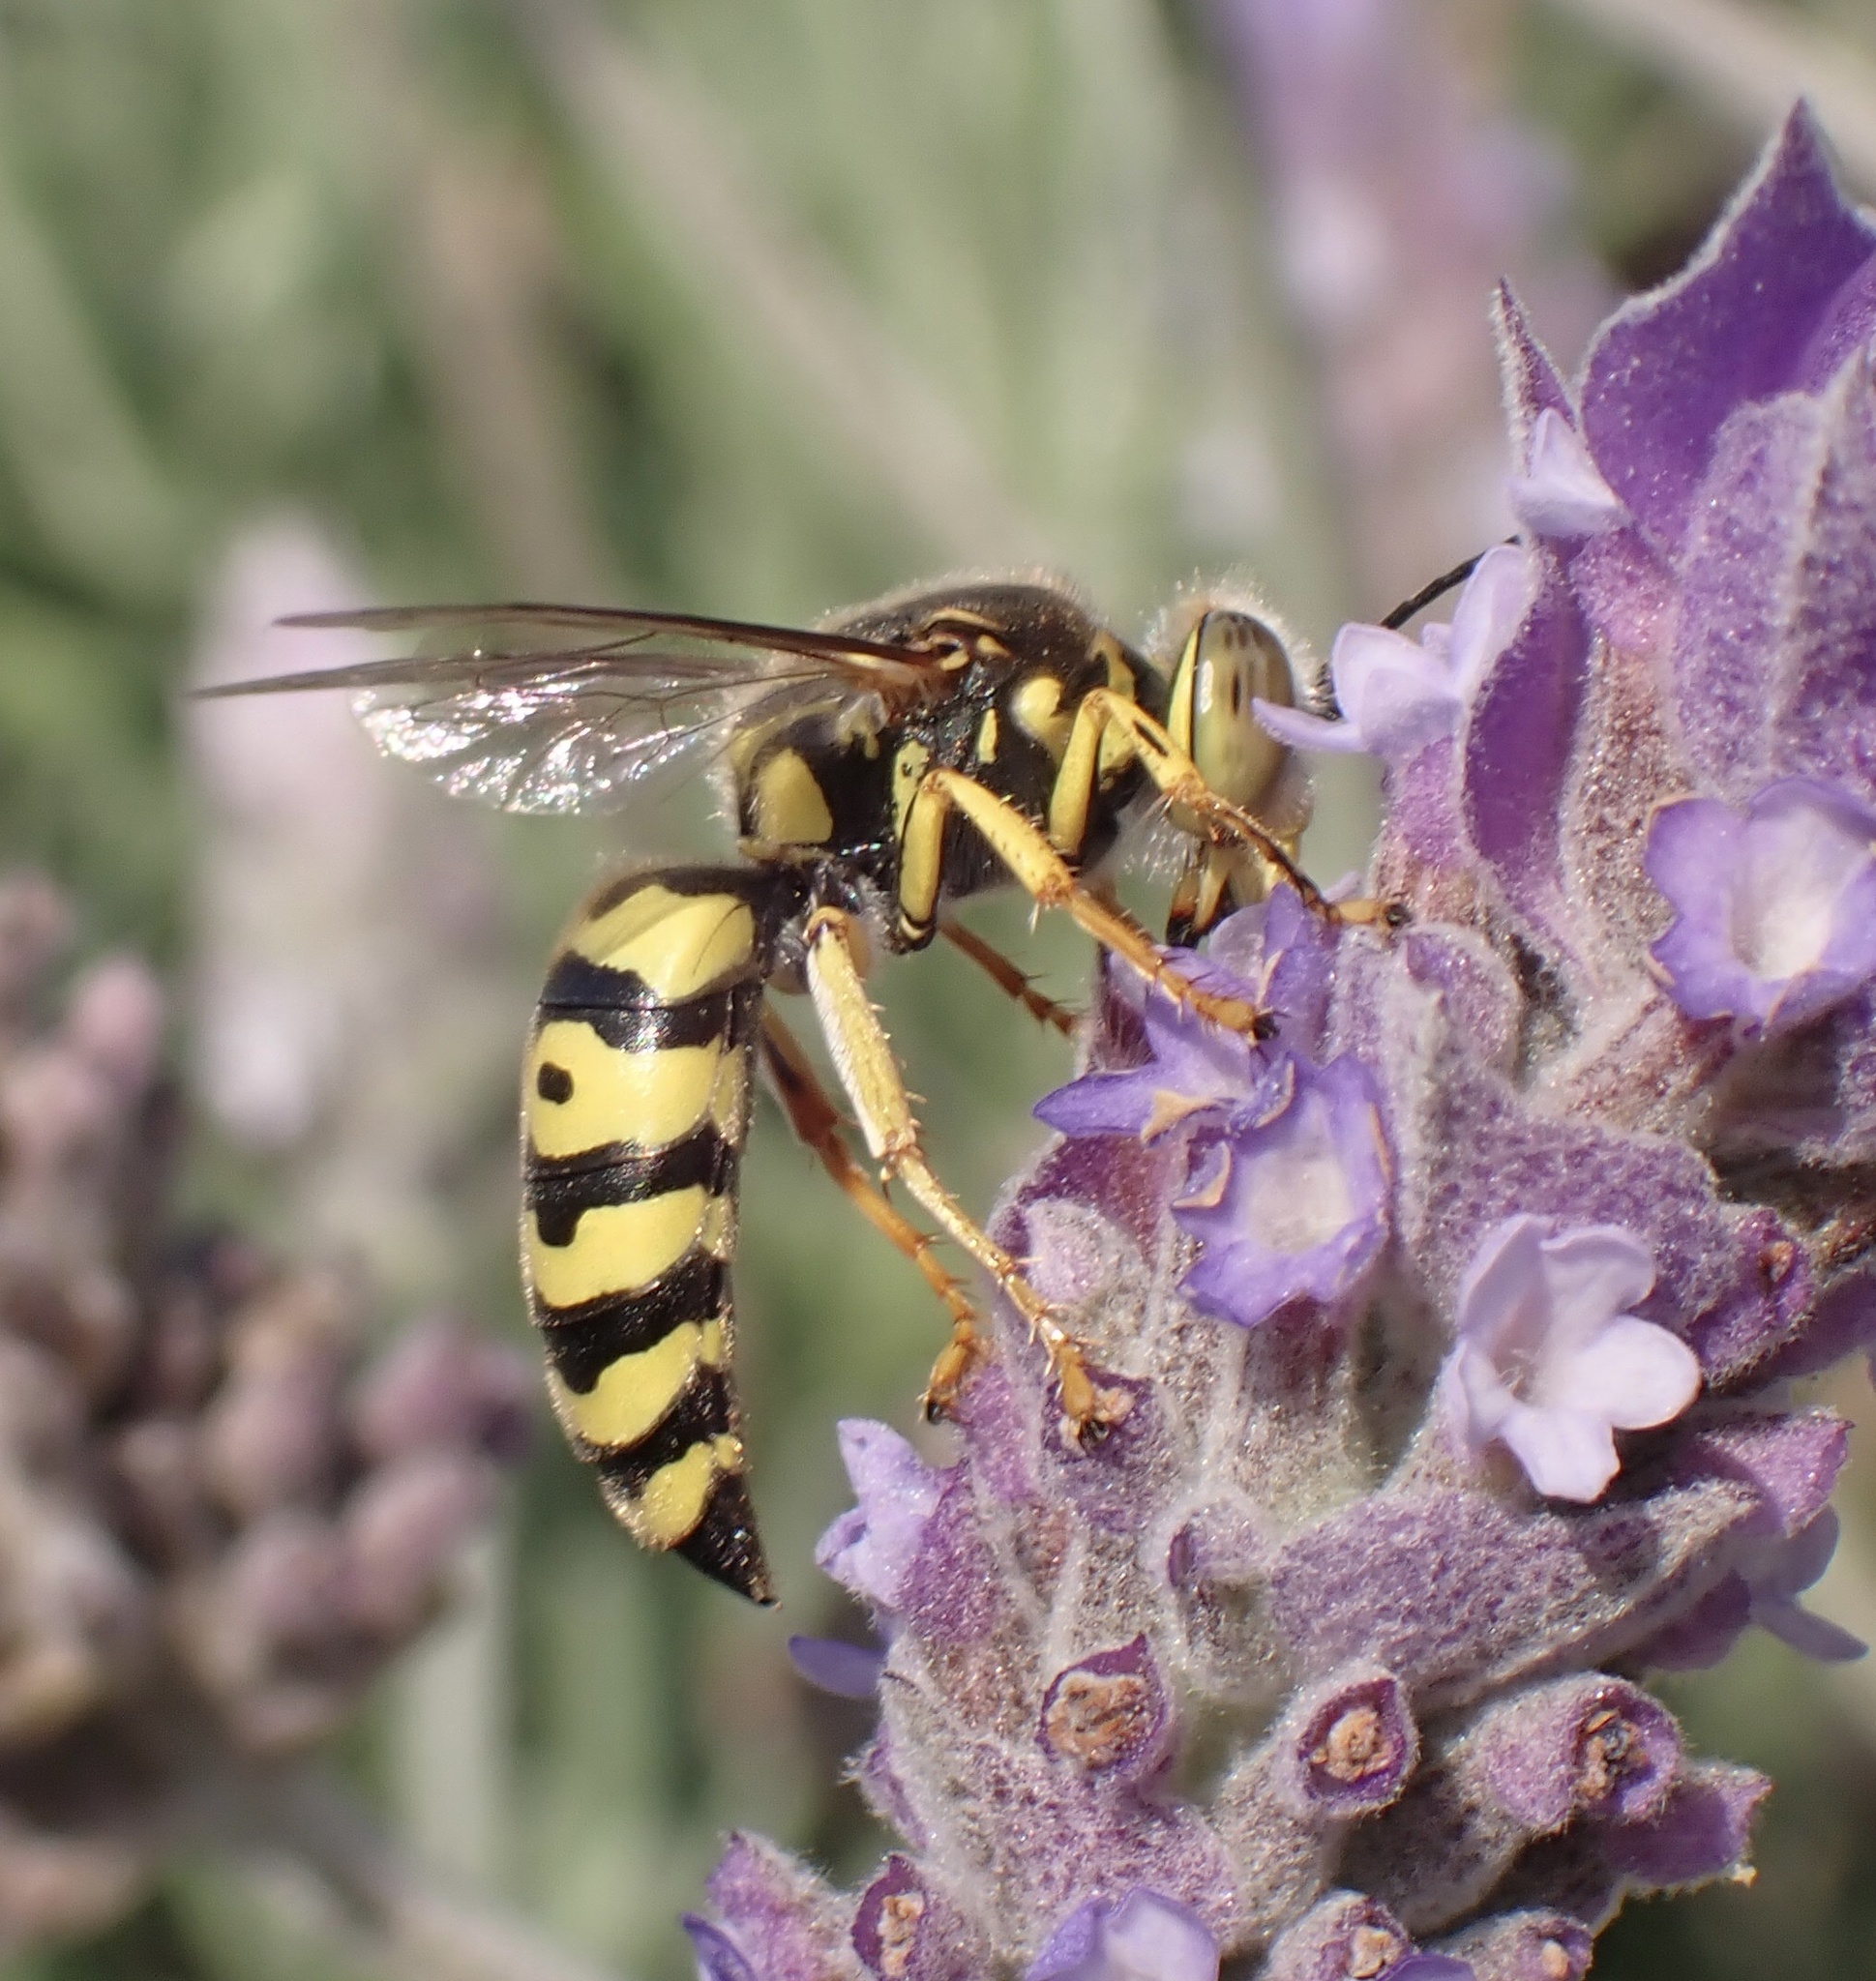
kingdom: Animalia
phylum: Arthropoda
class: Insecta
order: Hymenoptera
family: Crabronidae
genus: Bembix
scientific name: Bembix oculata
